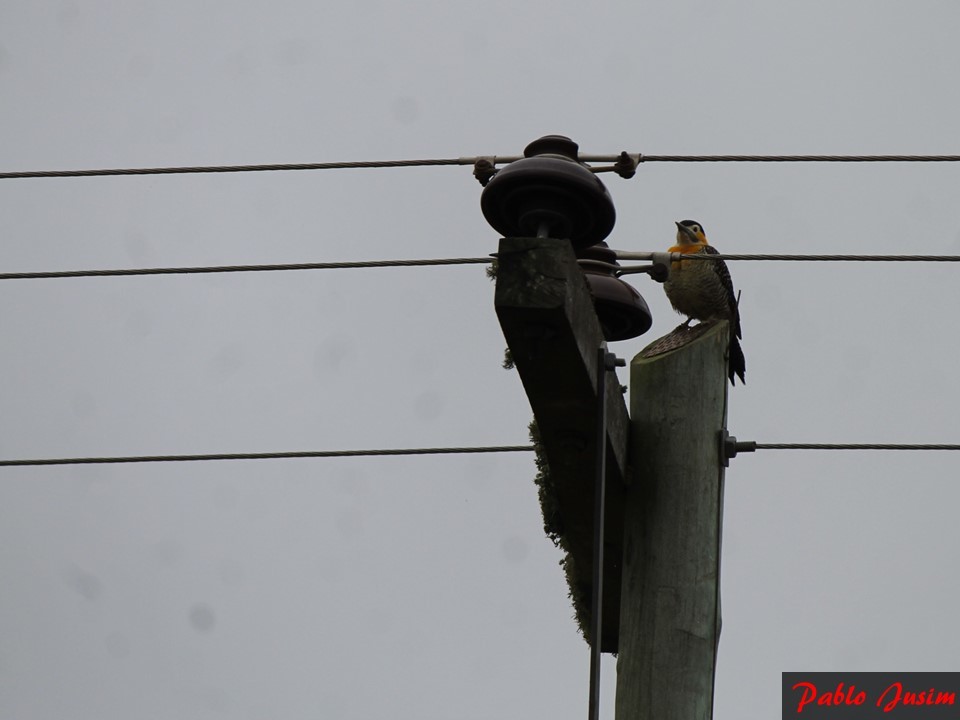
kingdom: Animalia
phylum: Chordata
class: Aves
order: Piciformes
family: Picidae
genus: Colaptes
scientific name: Colaptes campestris
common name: Campo flicker
